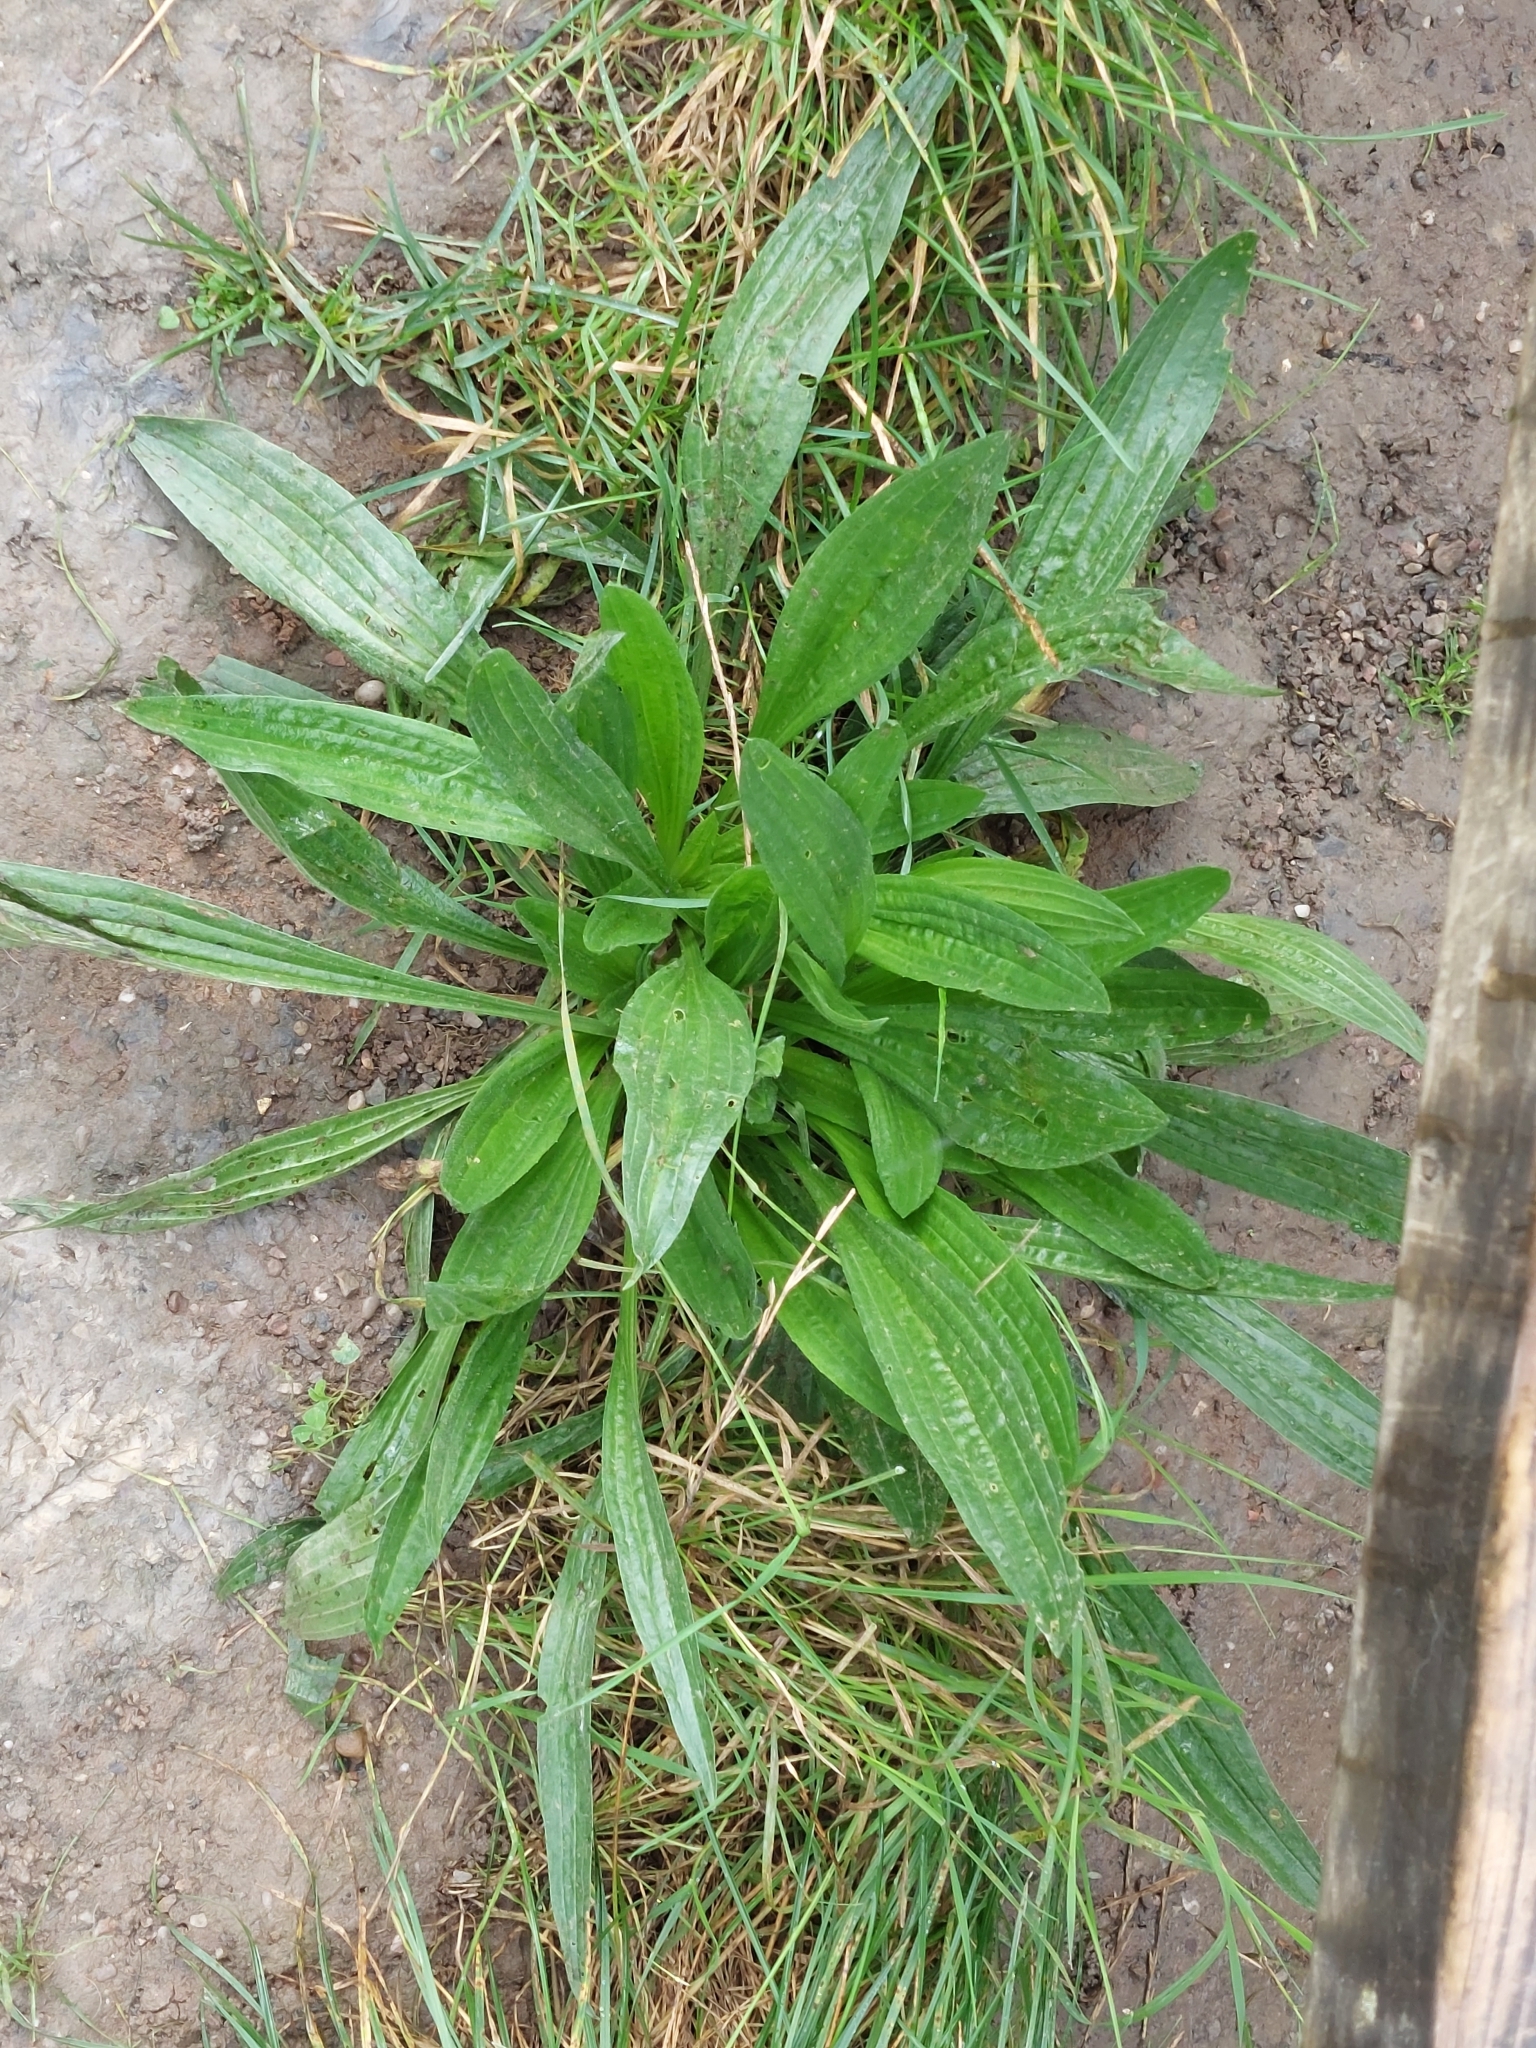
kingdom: Plantae
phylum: Tracheophyta
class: Magnoliopsida
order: Lamiales
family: Plantaginaceae
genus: Plantago
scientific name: Plantago lanceolata
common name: Ribwort plantain
